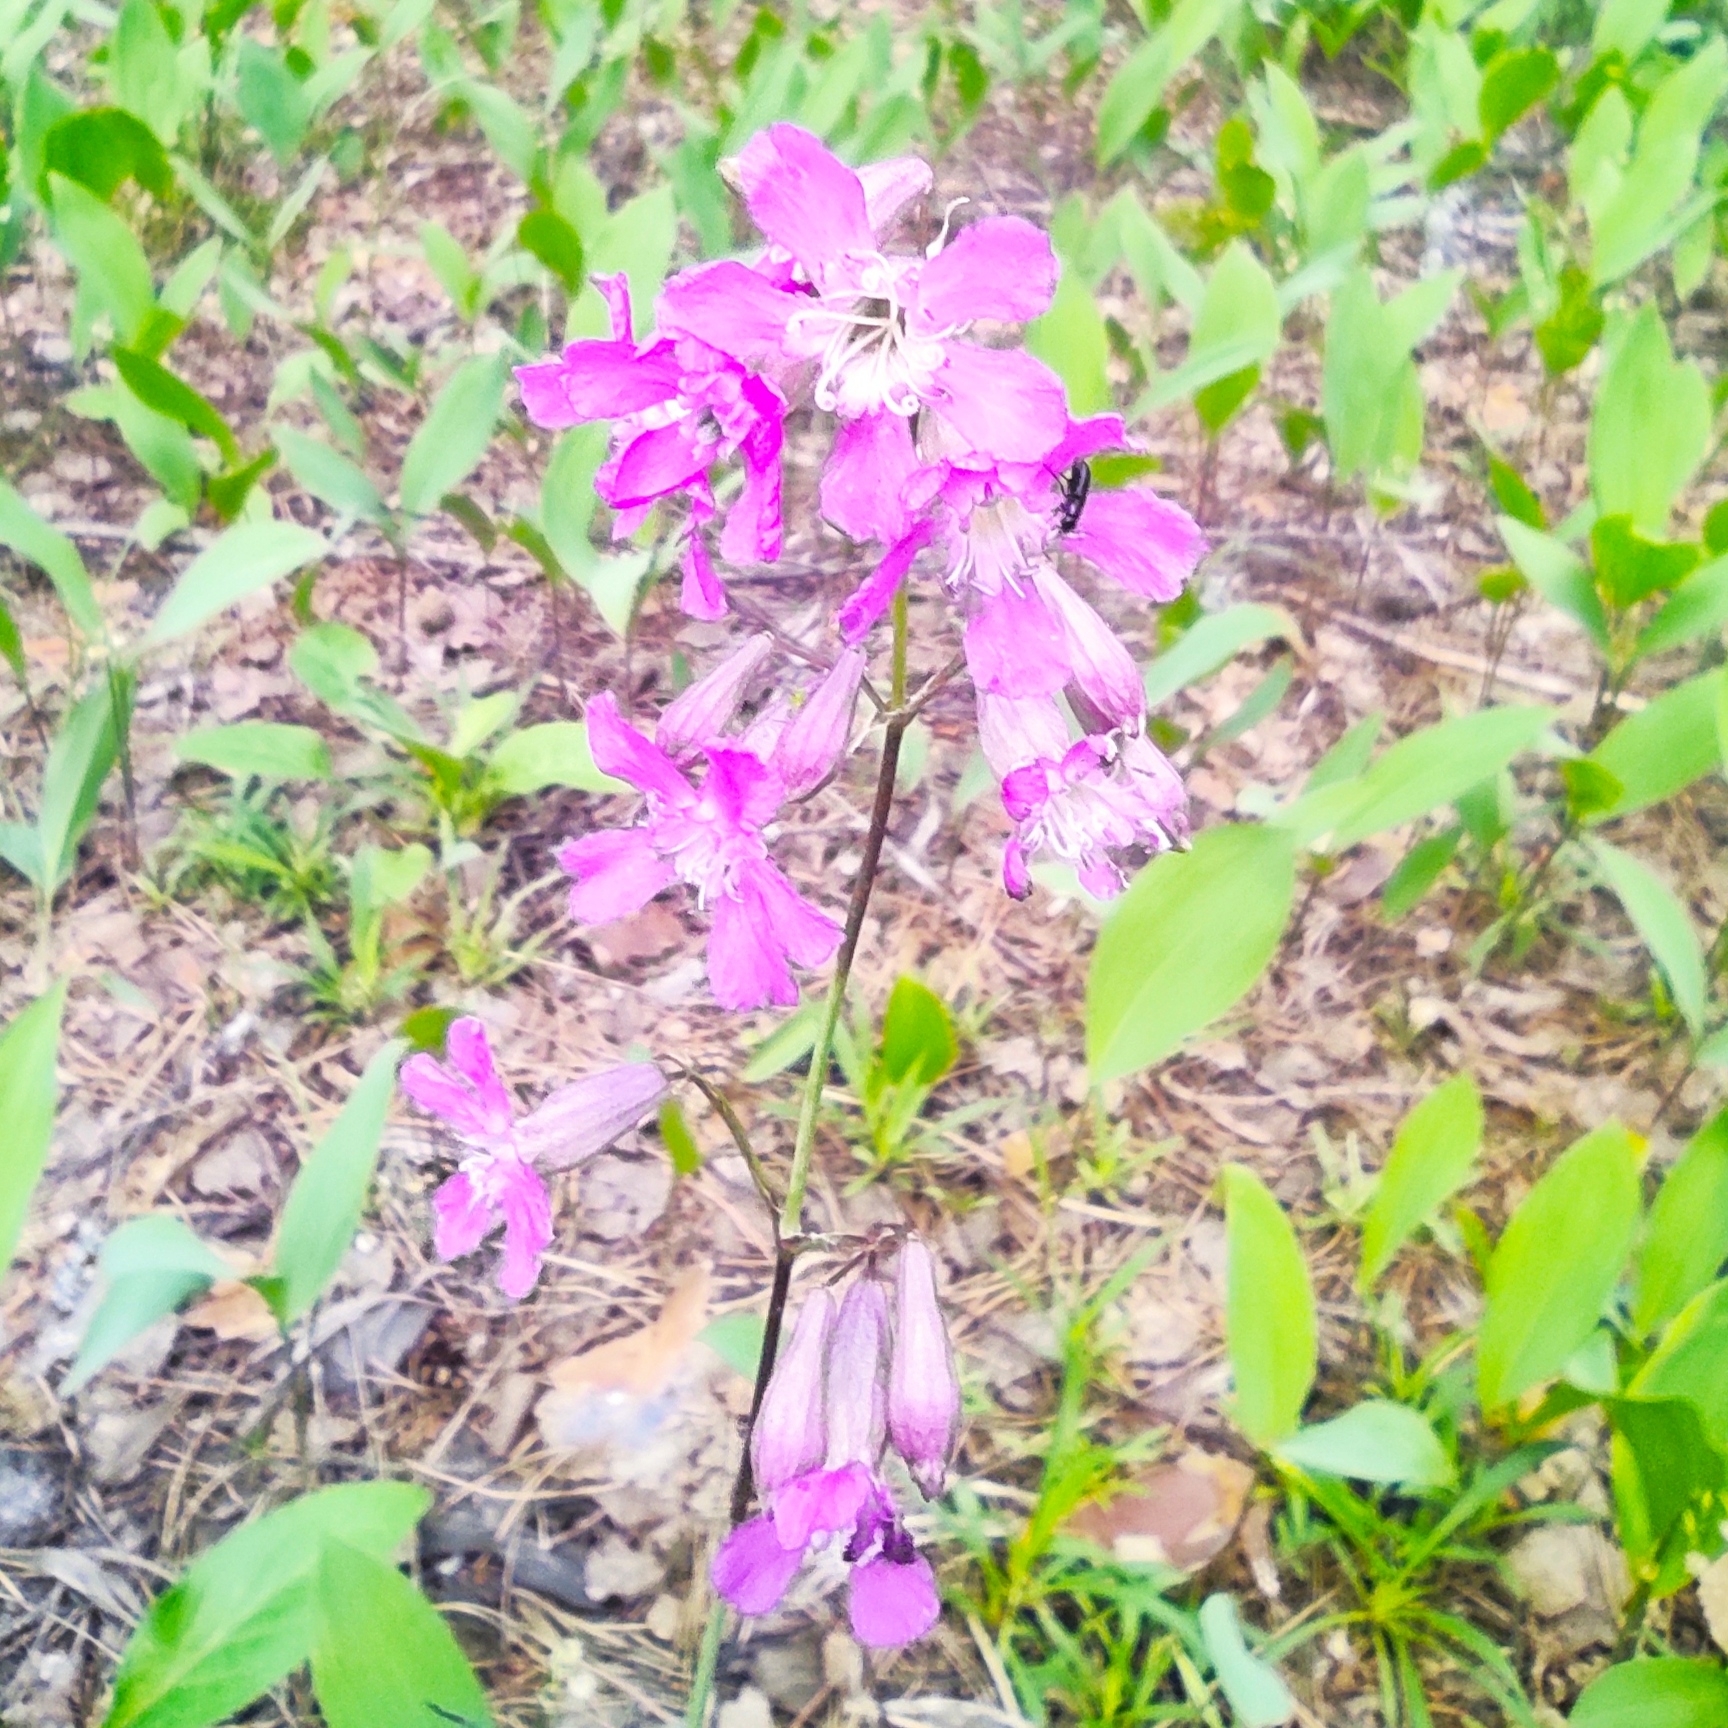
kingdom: Plantae
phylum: Tracheophyta
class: Magnoliopsida
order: Caryophyllales
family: Caryophyllaceae
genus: Viscaria
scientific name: Viscaria vulgaris
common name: Clammy campion
